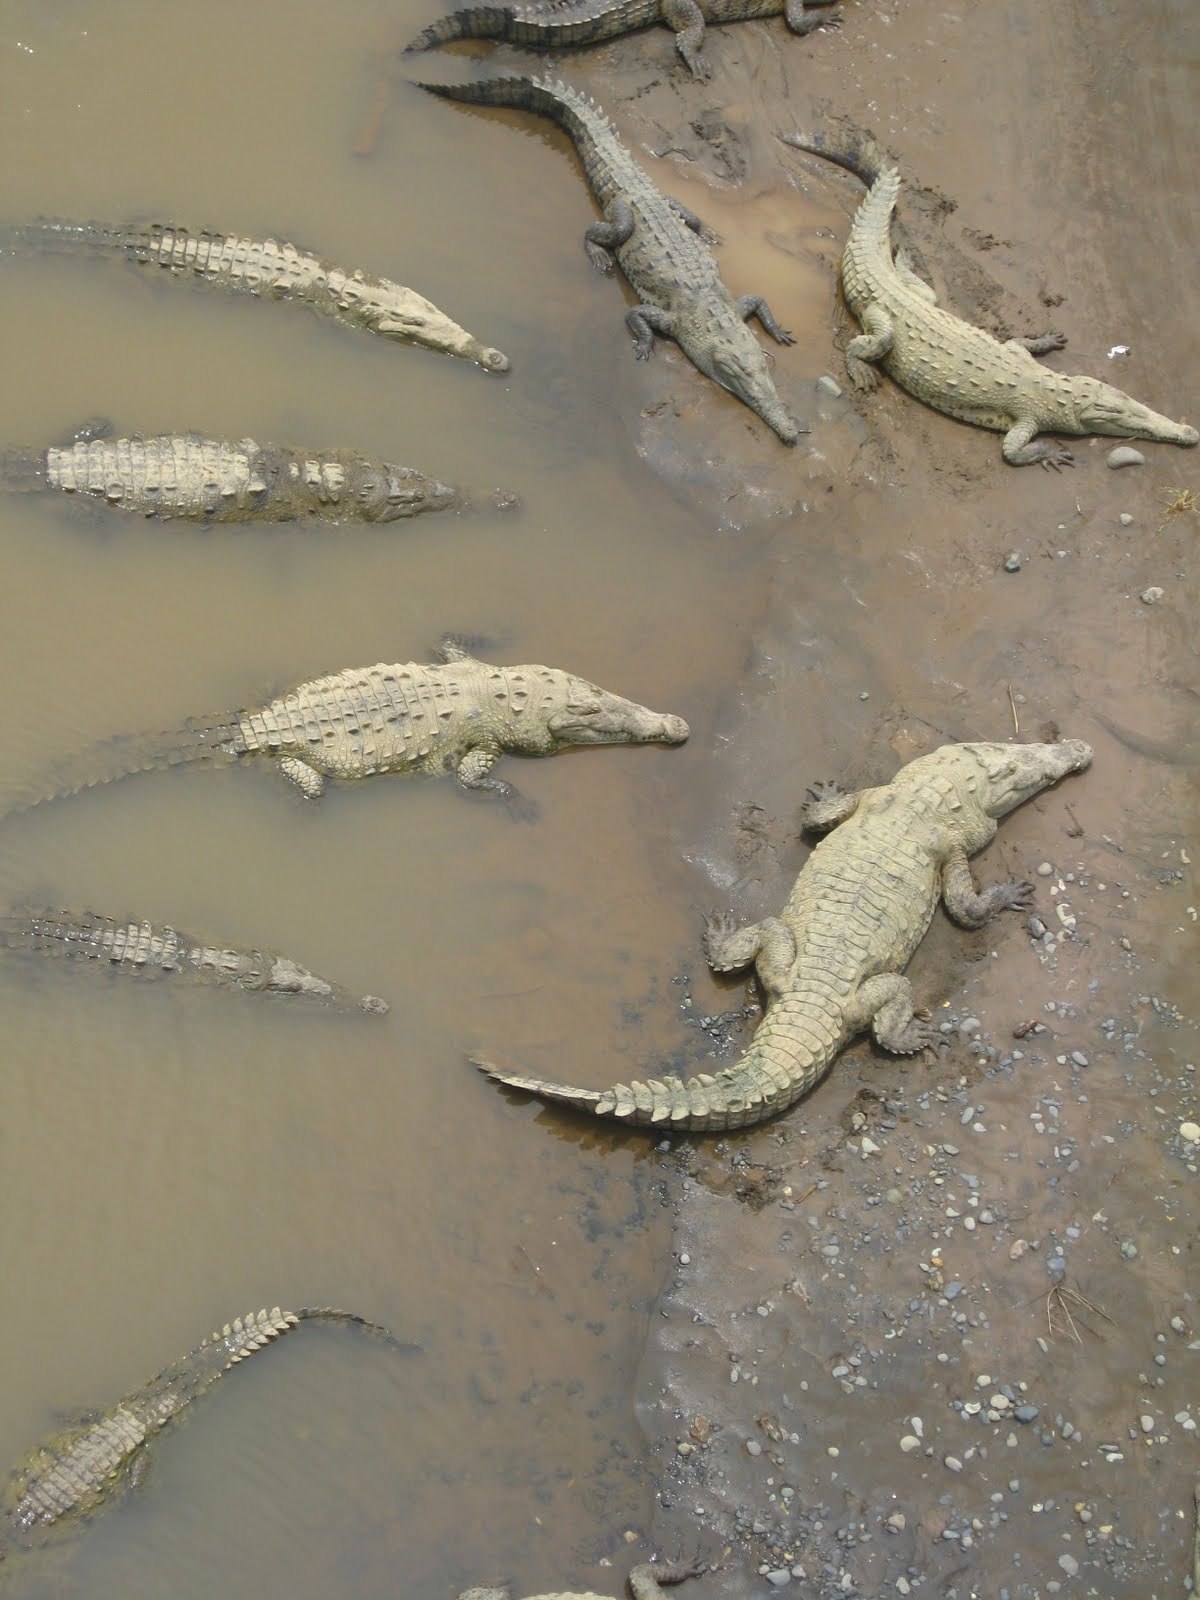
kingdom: Animalia
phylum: Chordata
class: Crocodylia
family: Crocodylidae
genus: Crocodylus
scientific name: Crocodylus acutus
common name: American crocodile
